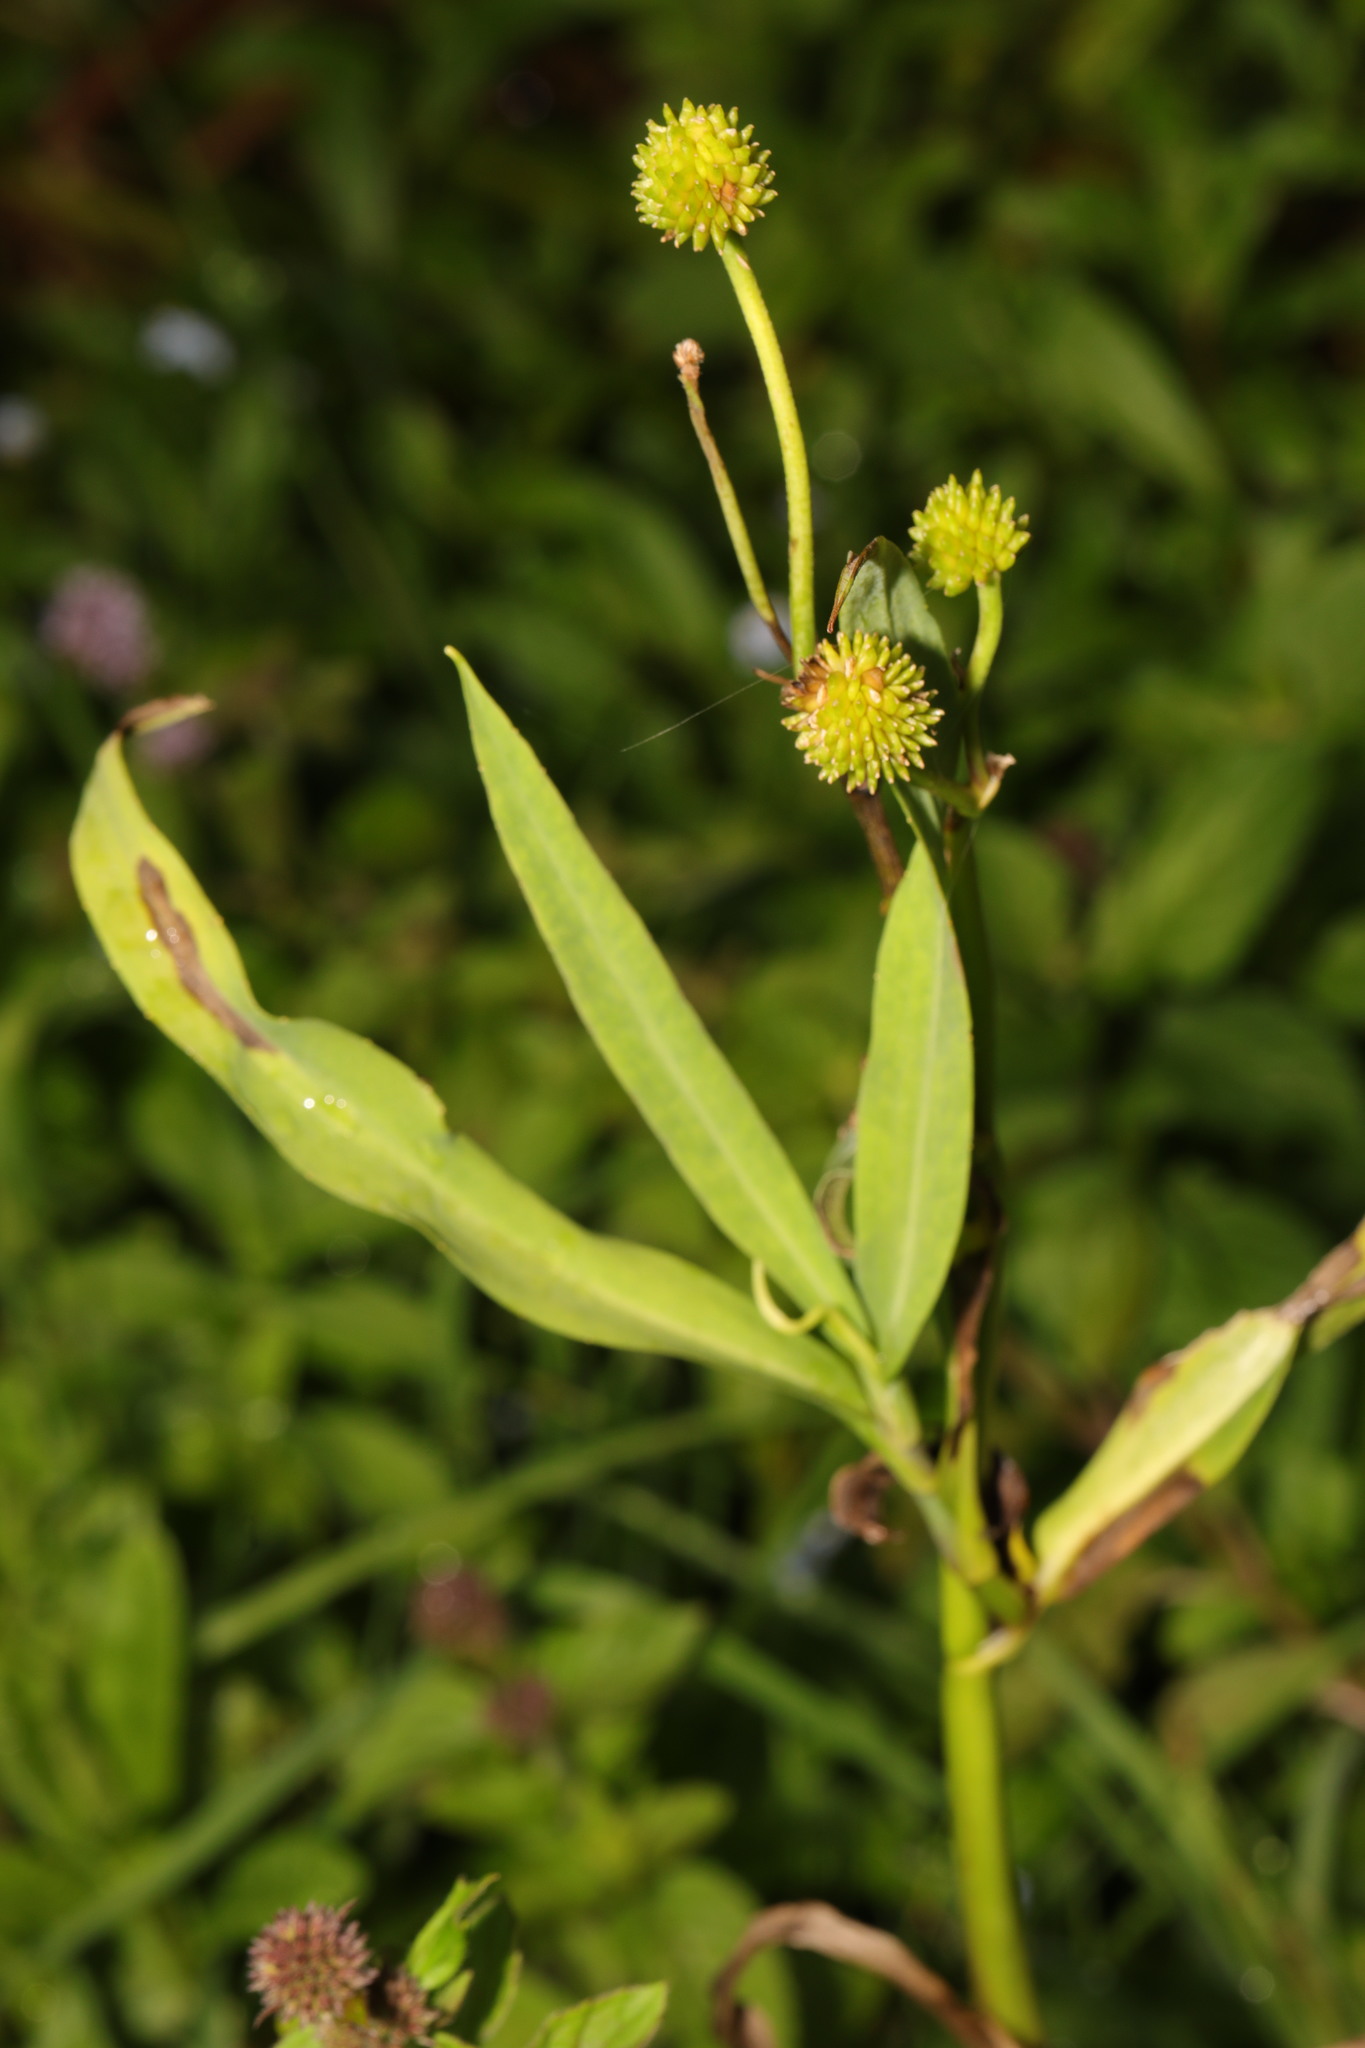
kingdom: Plantae
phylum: Tracheophyta
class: Magnoliopsida
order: Ranunculales
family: Ranunculaceae
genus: Ranunculus
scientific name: Ranunculus lingua
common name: Greater spearwort
